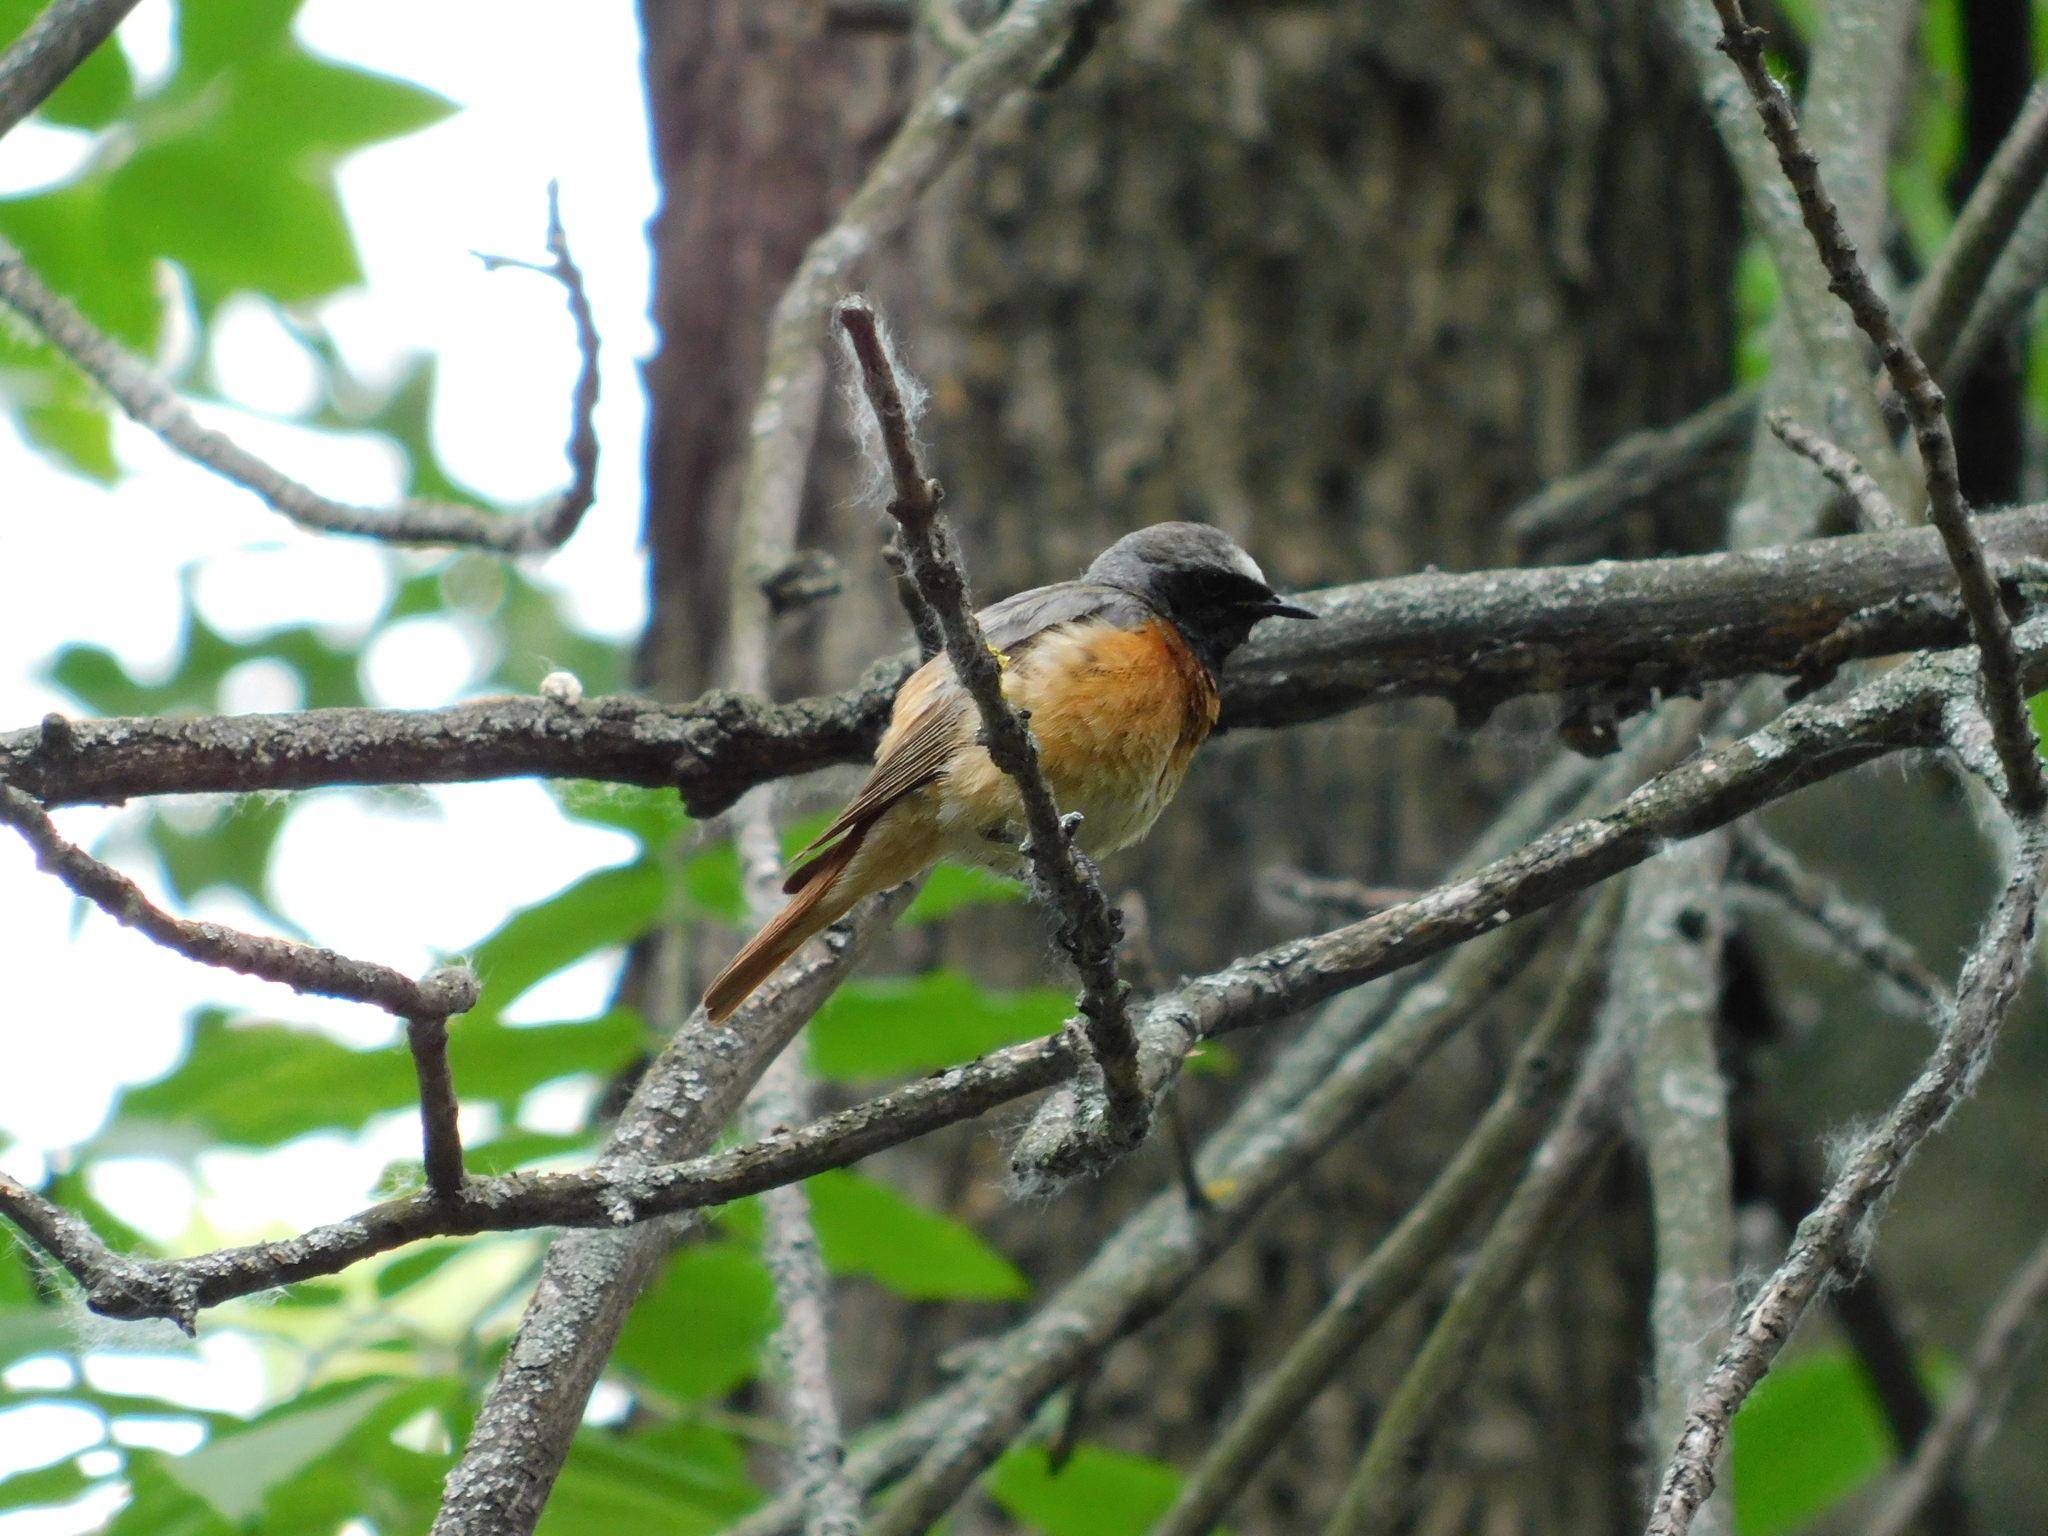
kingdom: Animalia
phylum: Chordata
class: Aves
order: Passeriformes
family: Muscicapidae
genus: Phoenicurus
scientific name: Phoenicurus phoenicurus
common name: Common redstart
